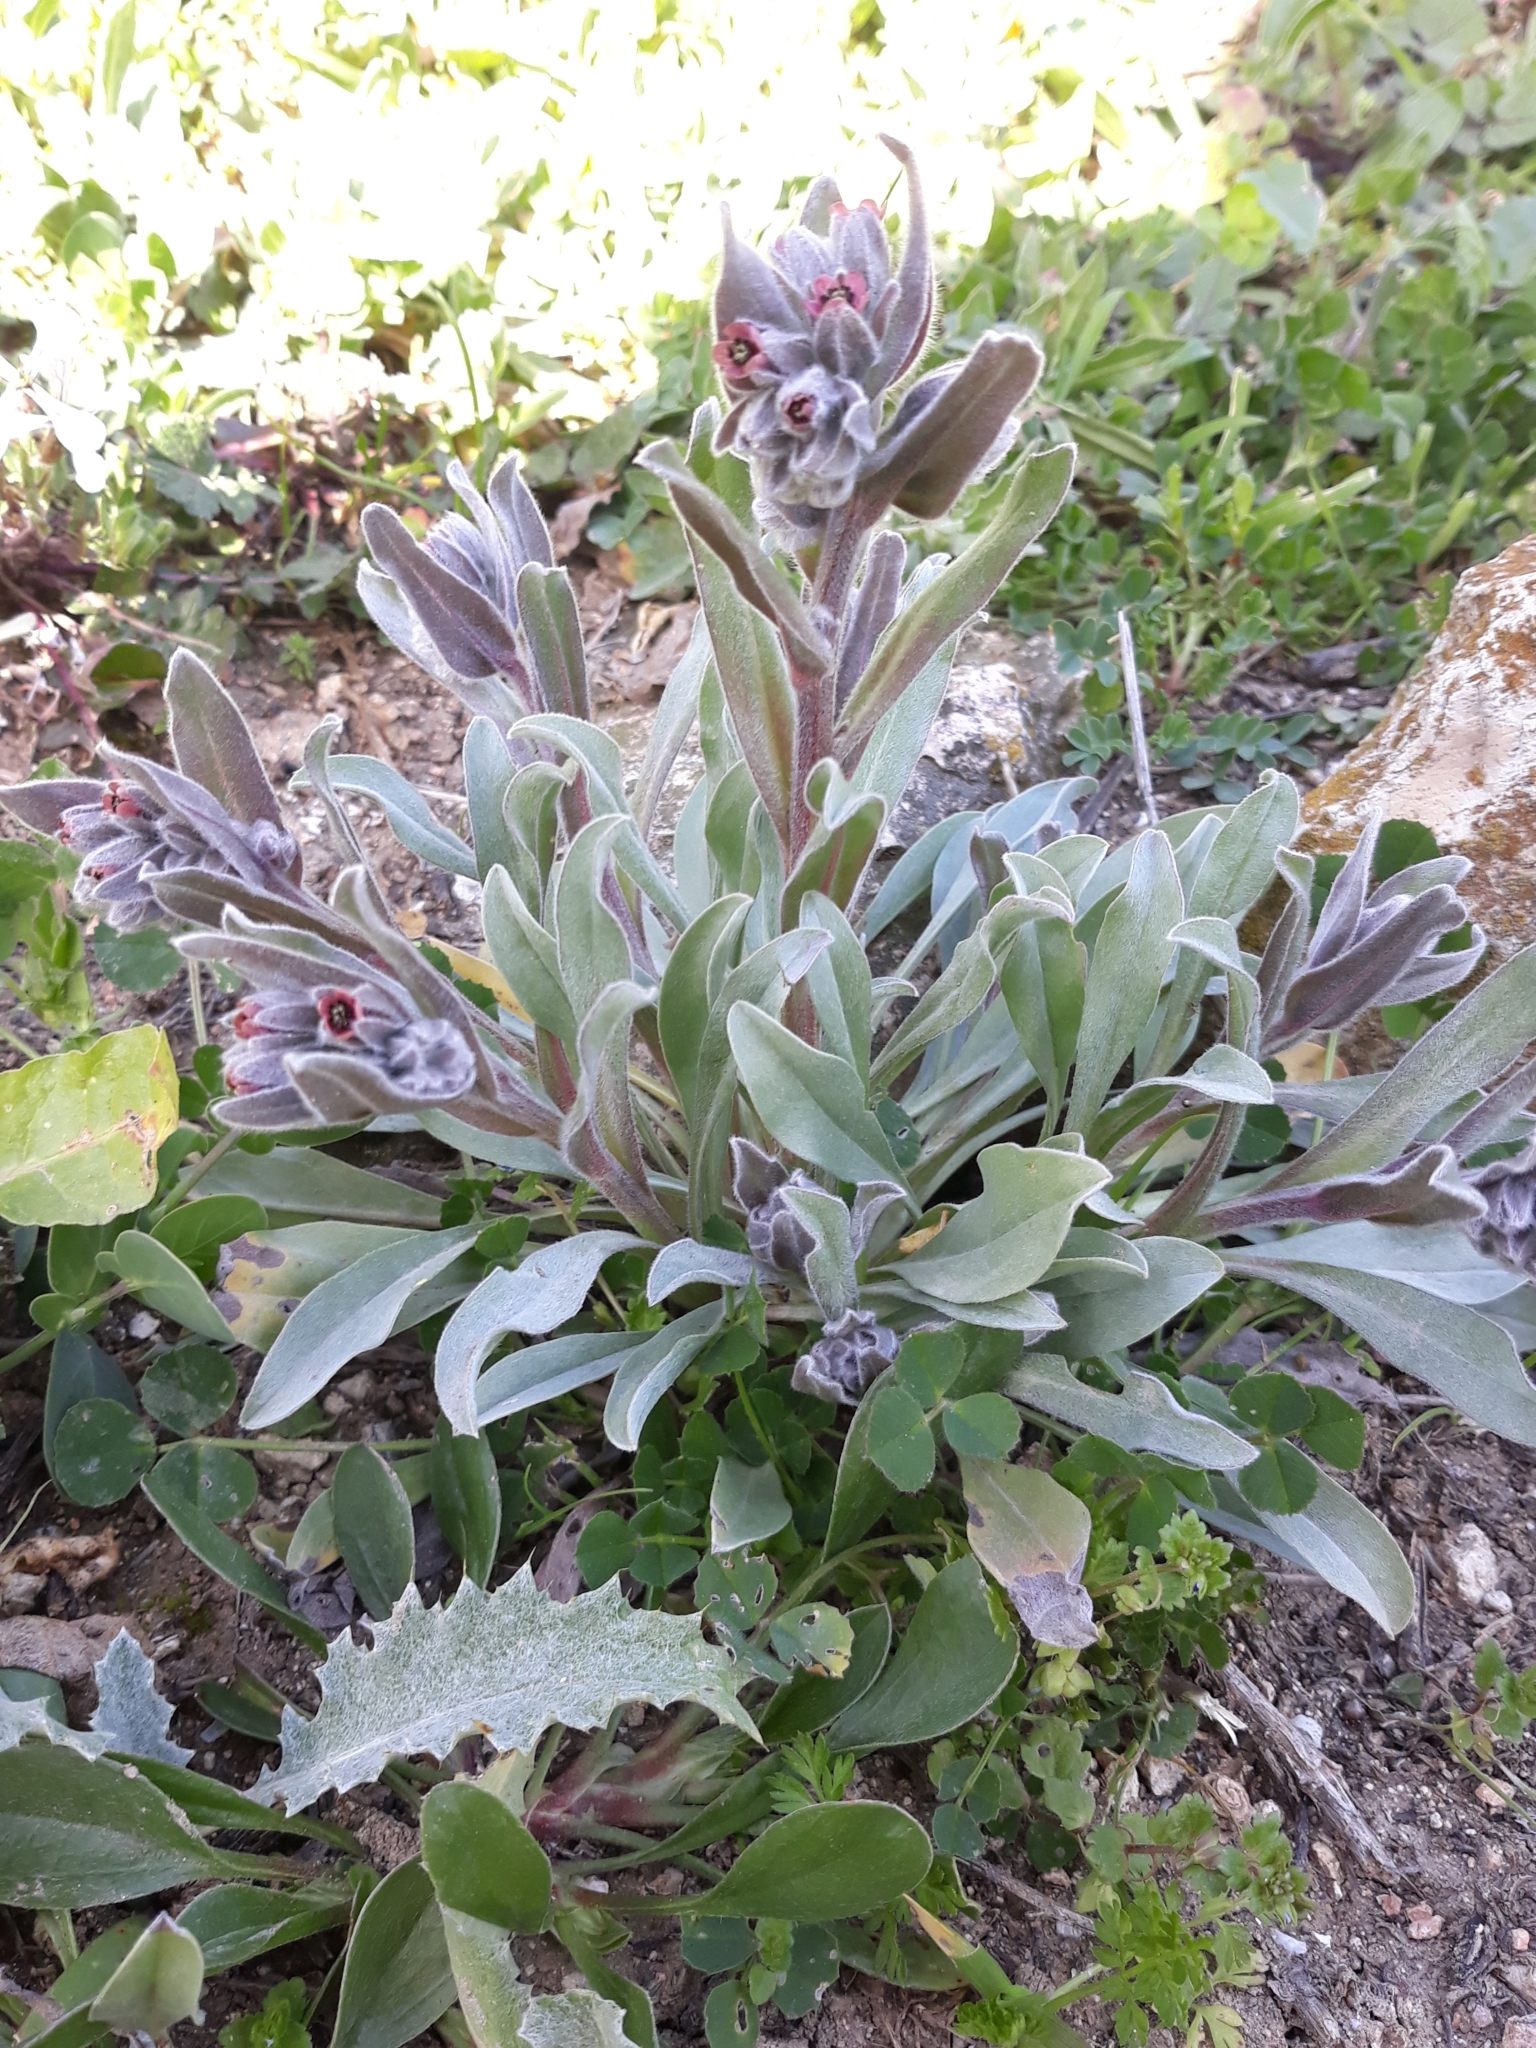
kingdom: Plantae
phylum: Tracheophyta
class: Magnoliopsida
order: Boraginales
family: Boraginaceae
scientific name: Boraginaceae
